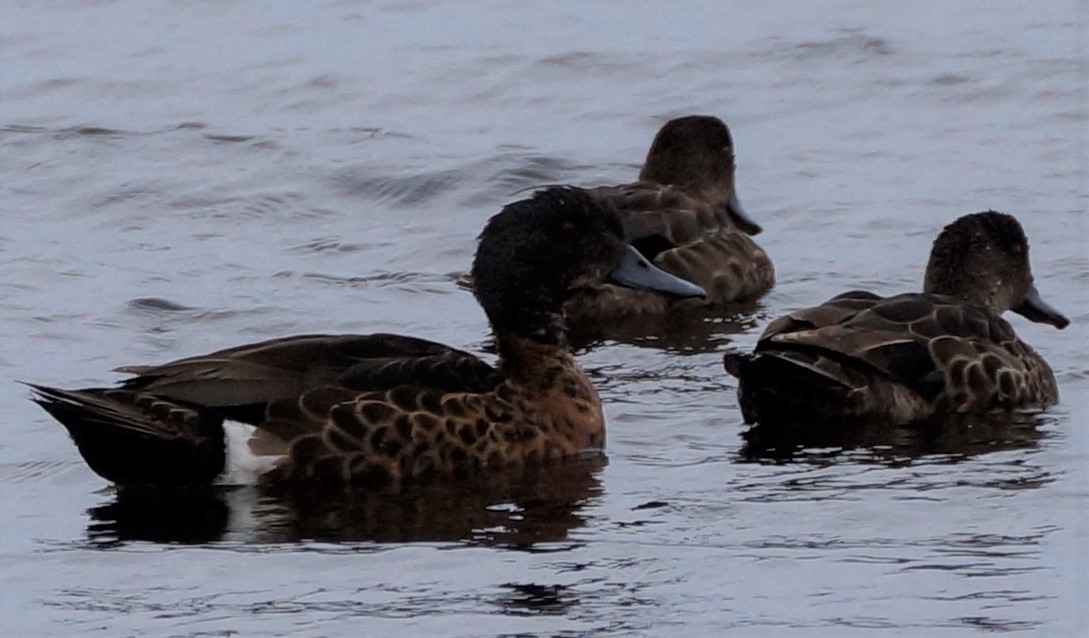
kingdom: Animalia
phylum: Chordata
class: Aves
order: Anseriformes
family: Anatidae
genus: Anas
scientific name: Anas castanea
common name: Chestnut teal
